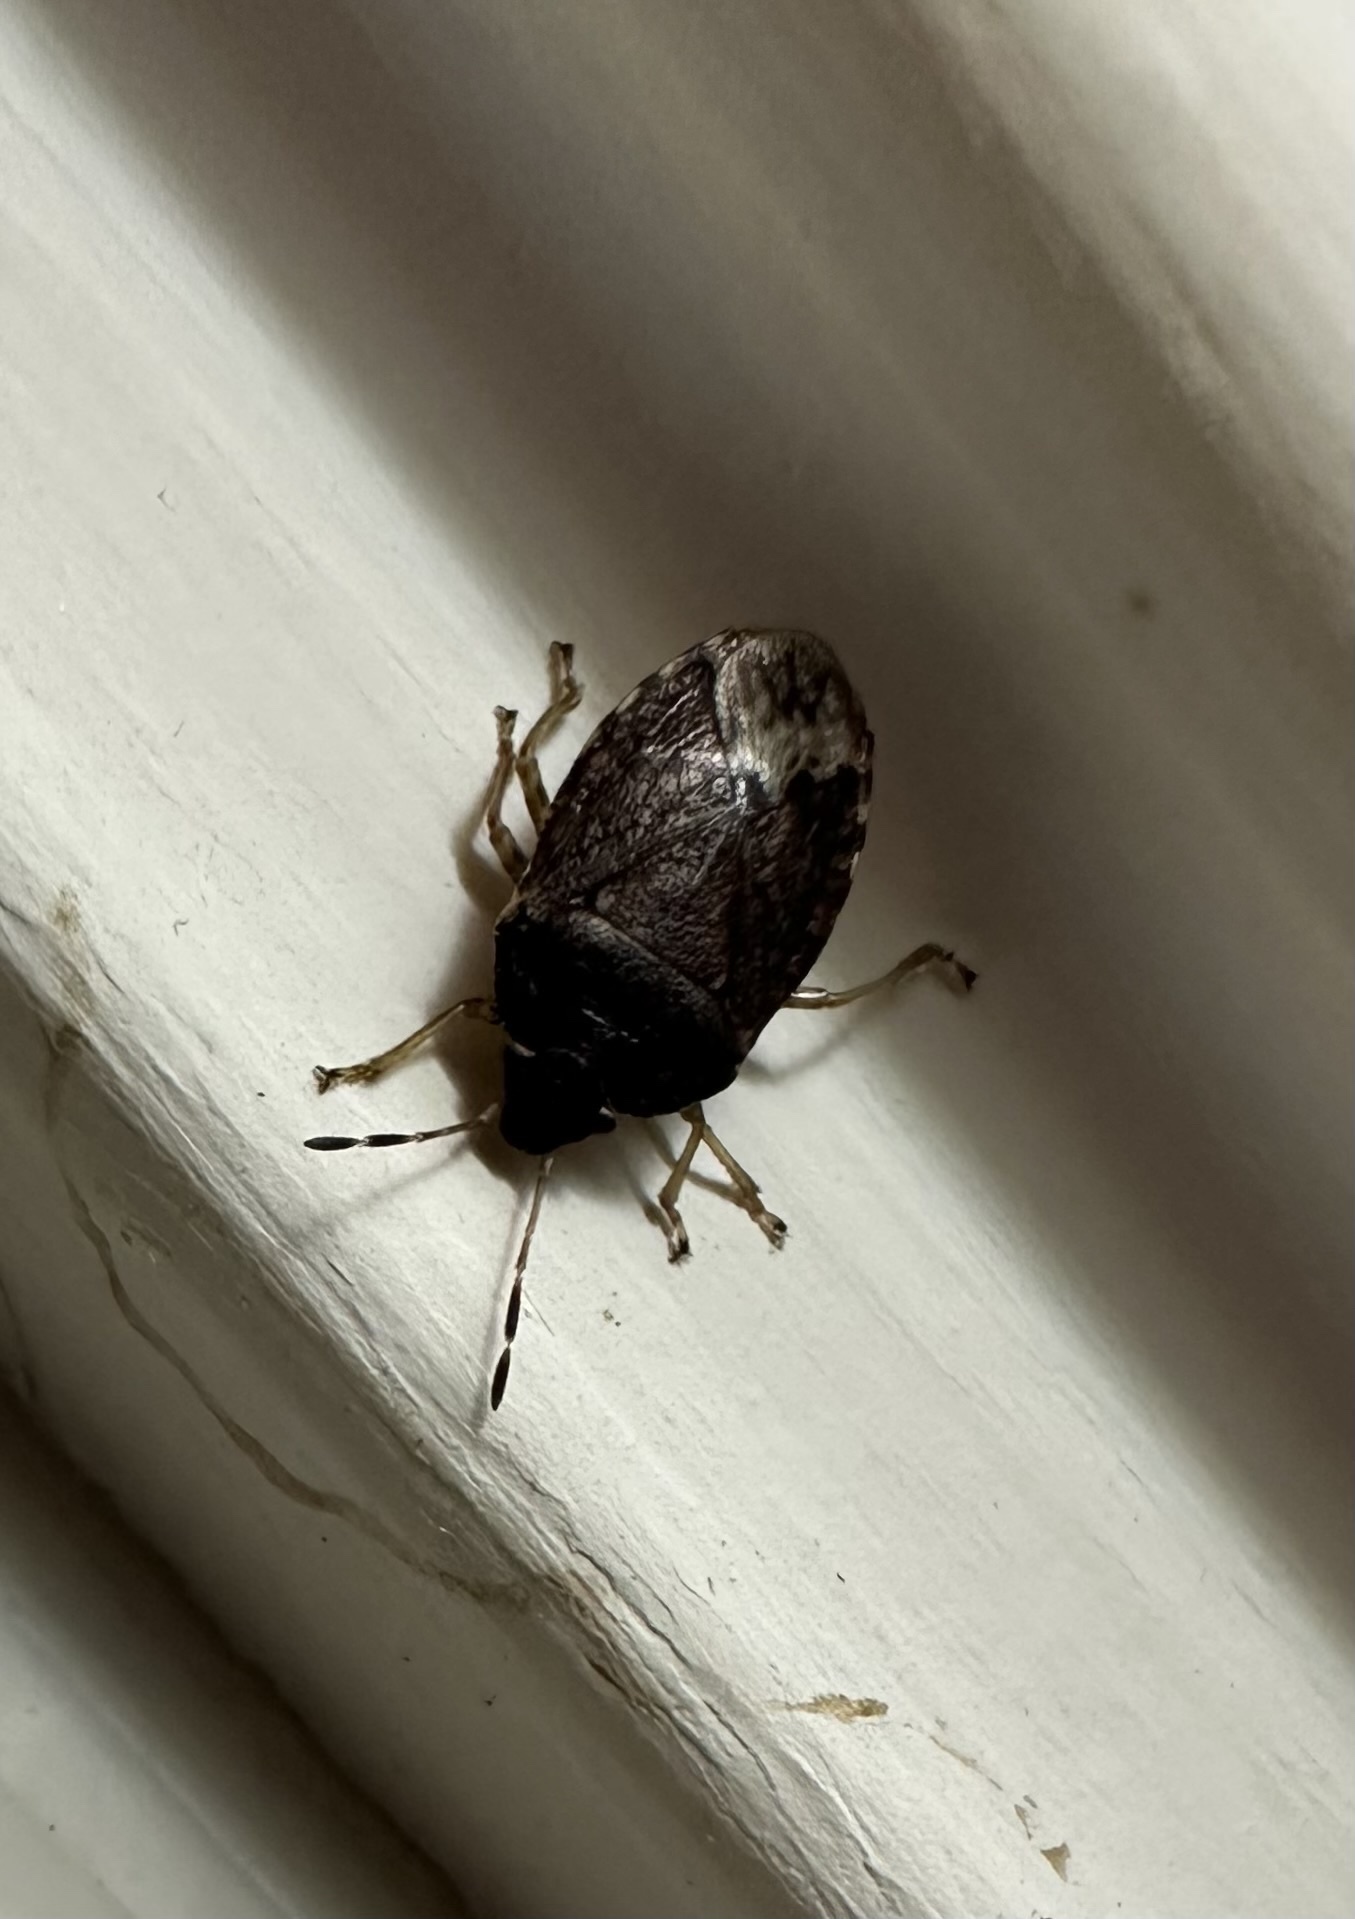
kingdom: Animalia
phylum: Arthropoda
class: Insecta
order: Hemiptera
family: Acanthosomatidae
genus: Acrophyma
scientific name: Acrophyma cumingii
